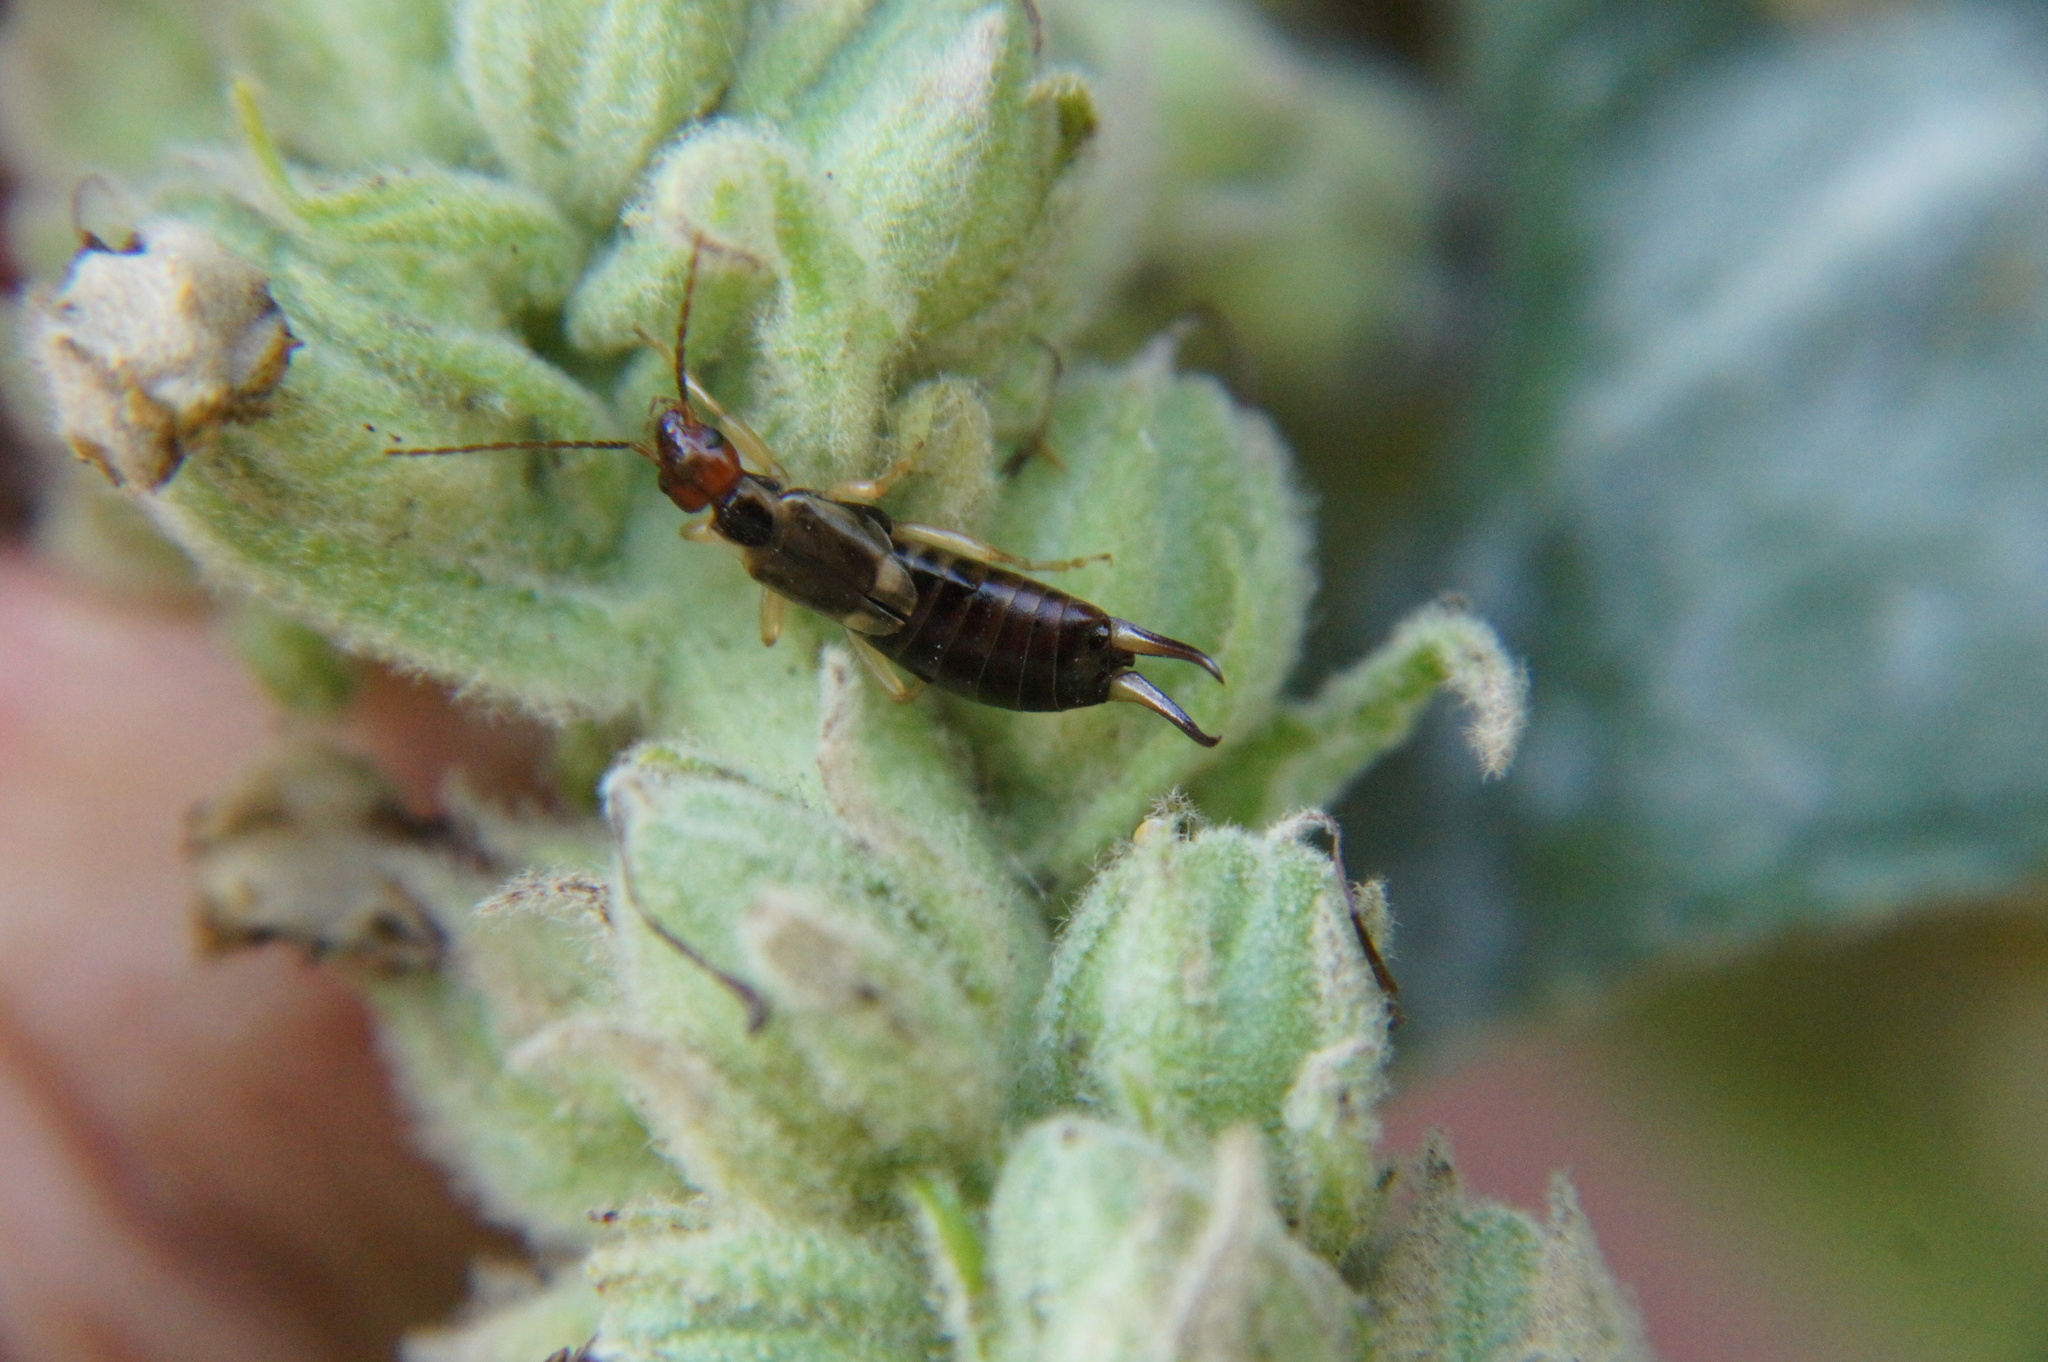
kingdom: Animalia
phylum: Arthropoda
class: Insecta
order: Dermaptera
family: Forficulidae
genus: Forficula
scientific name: Forficula
